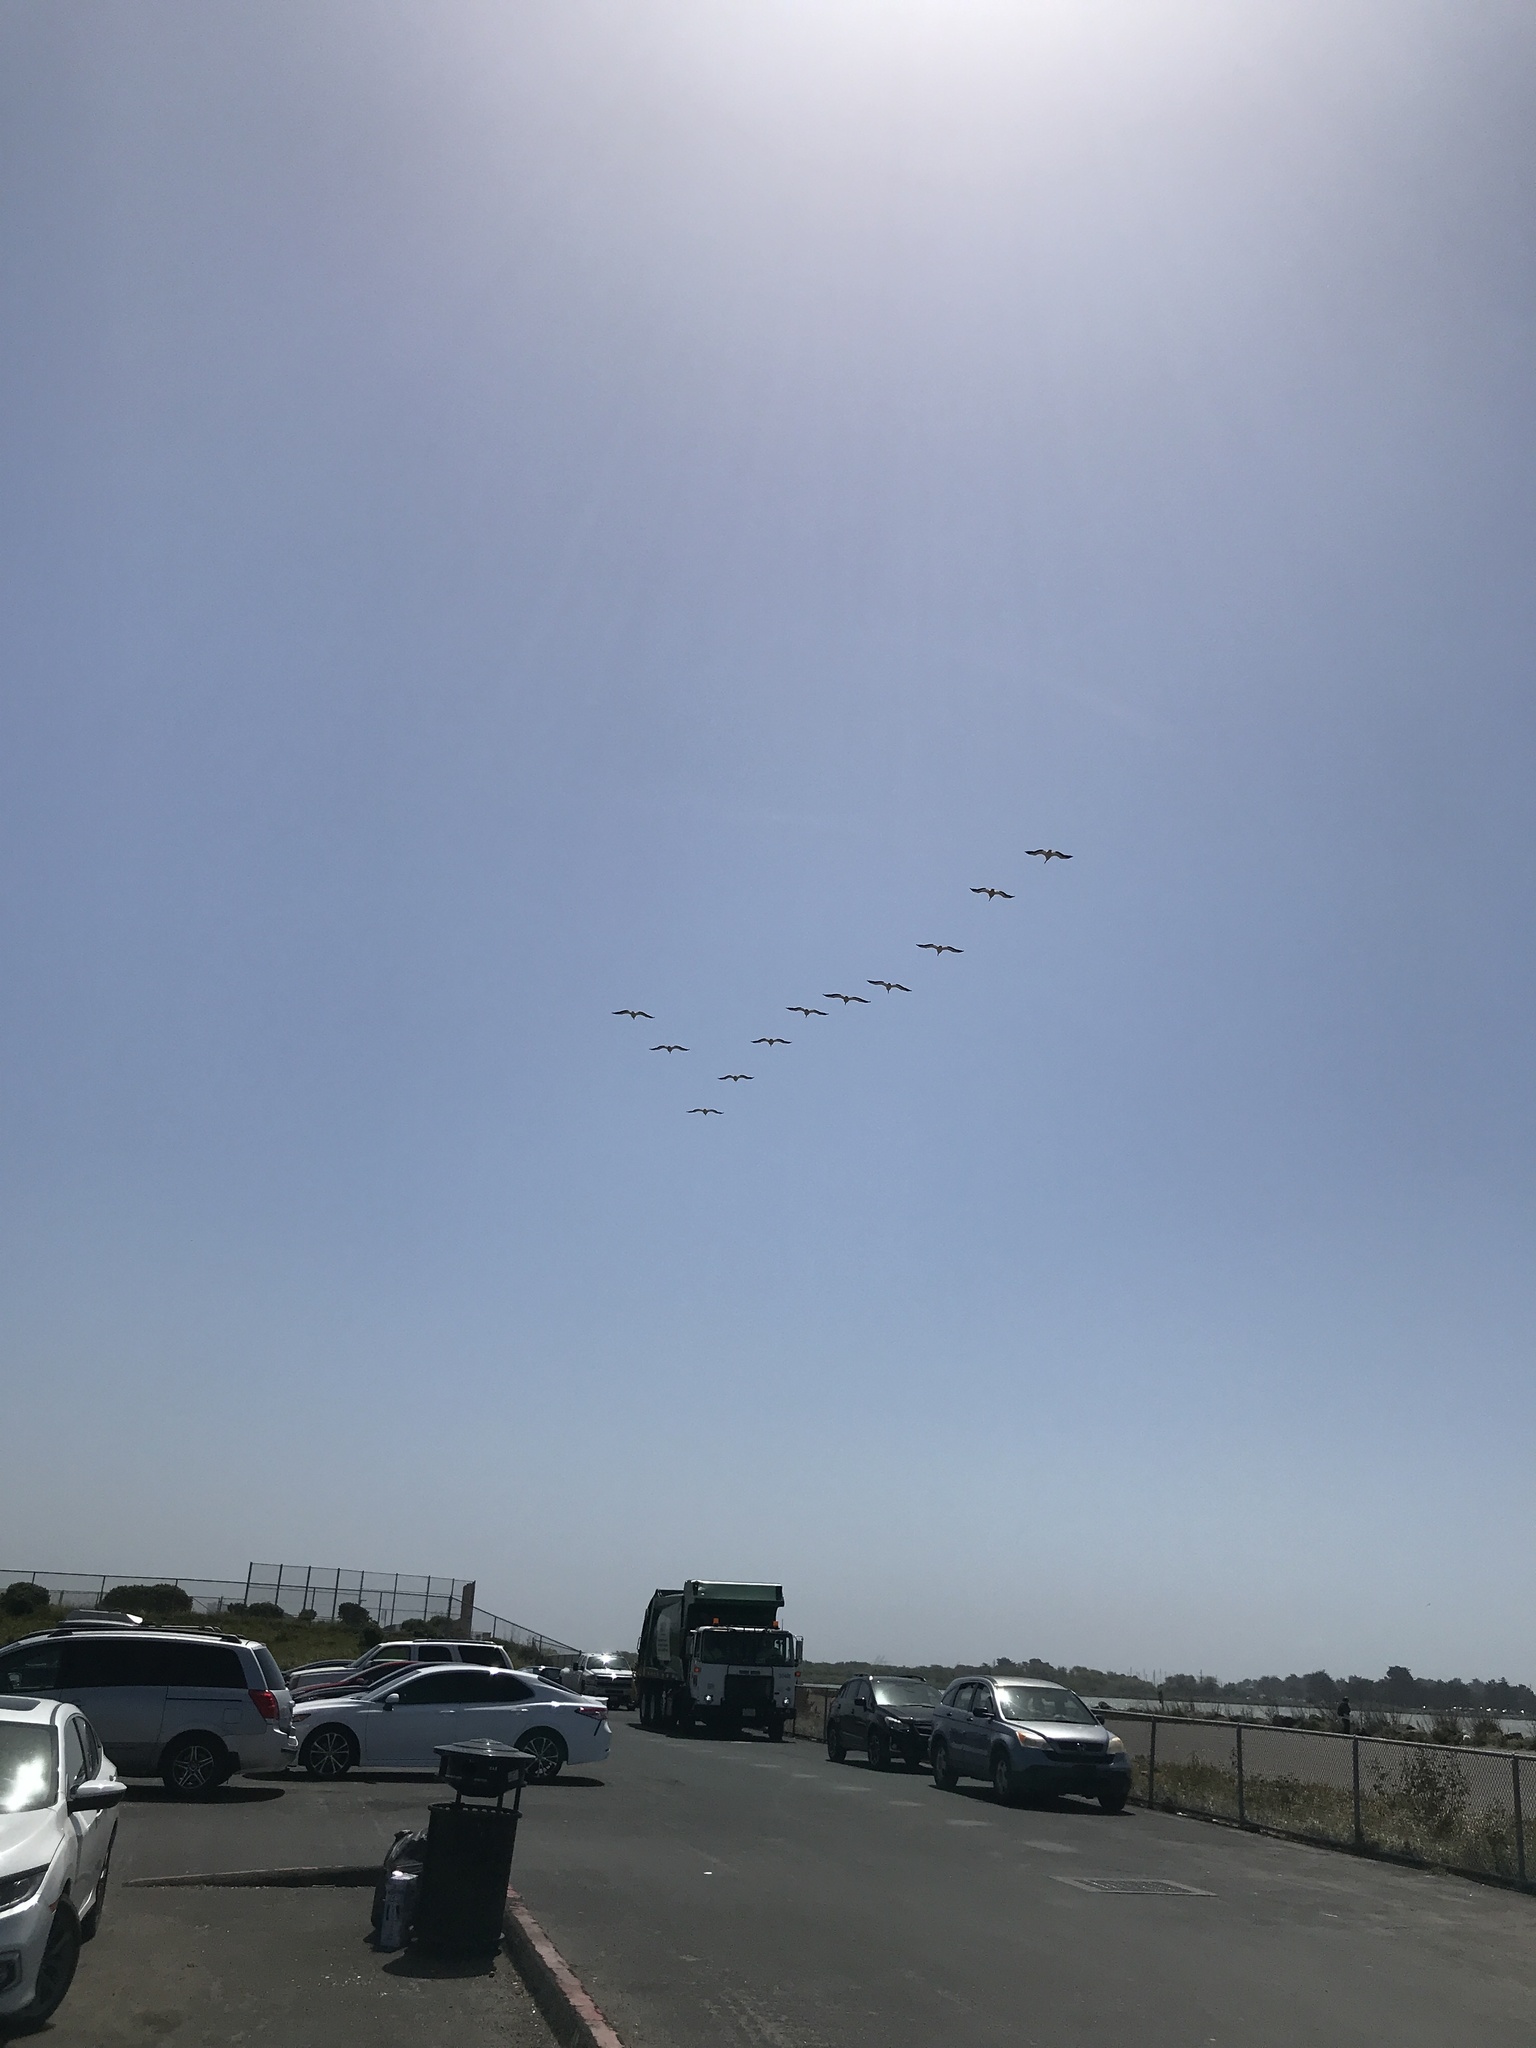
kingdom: Animalia
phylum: Chordata
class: Aves
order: Pelecaniformes
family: Pelecanidae
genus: Pelecanus
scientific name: Pelecanus erythrorhynchos
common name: American white pelican
